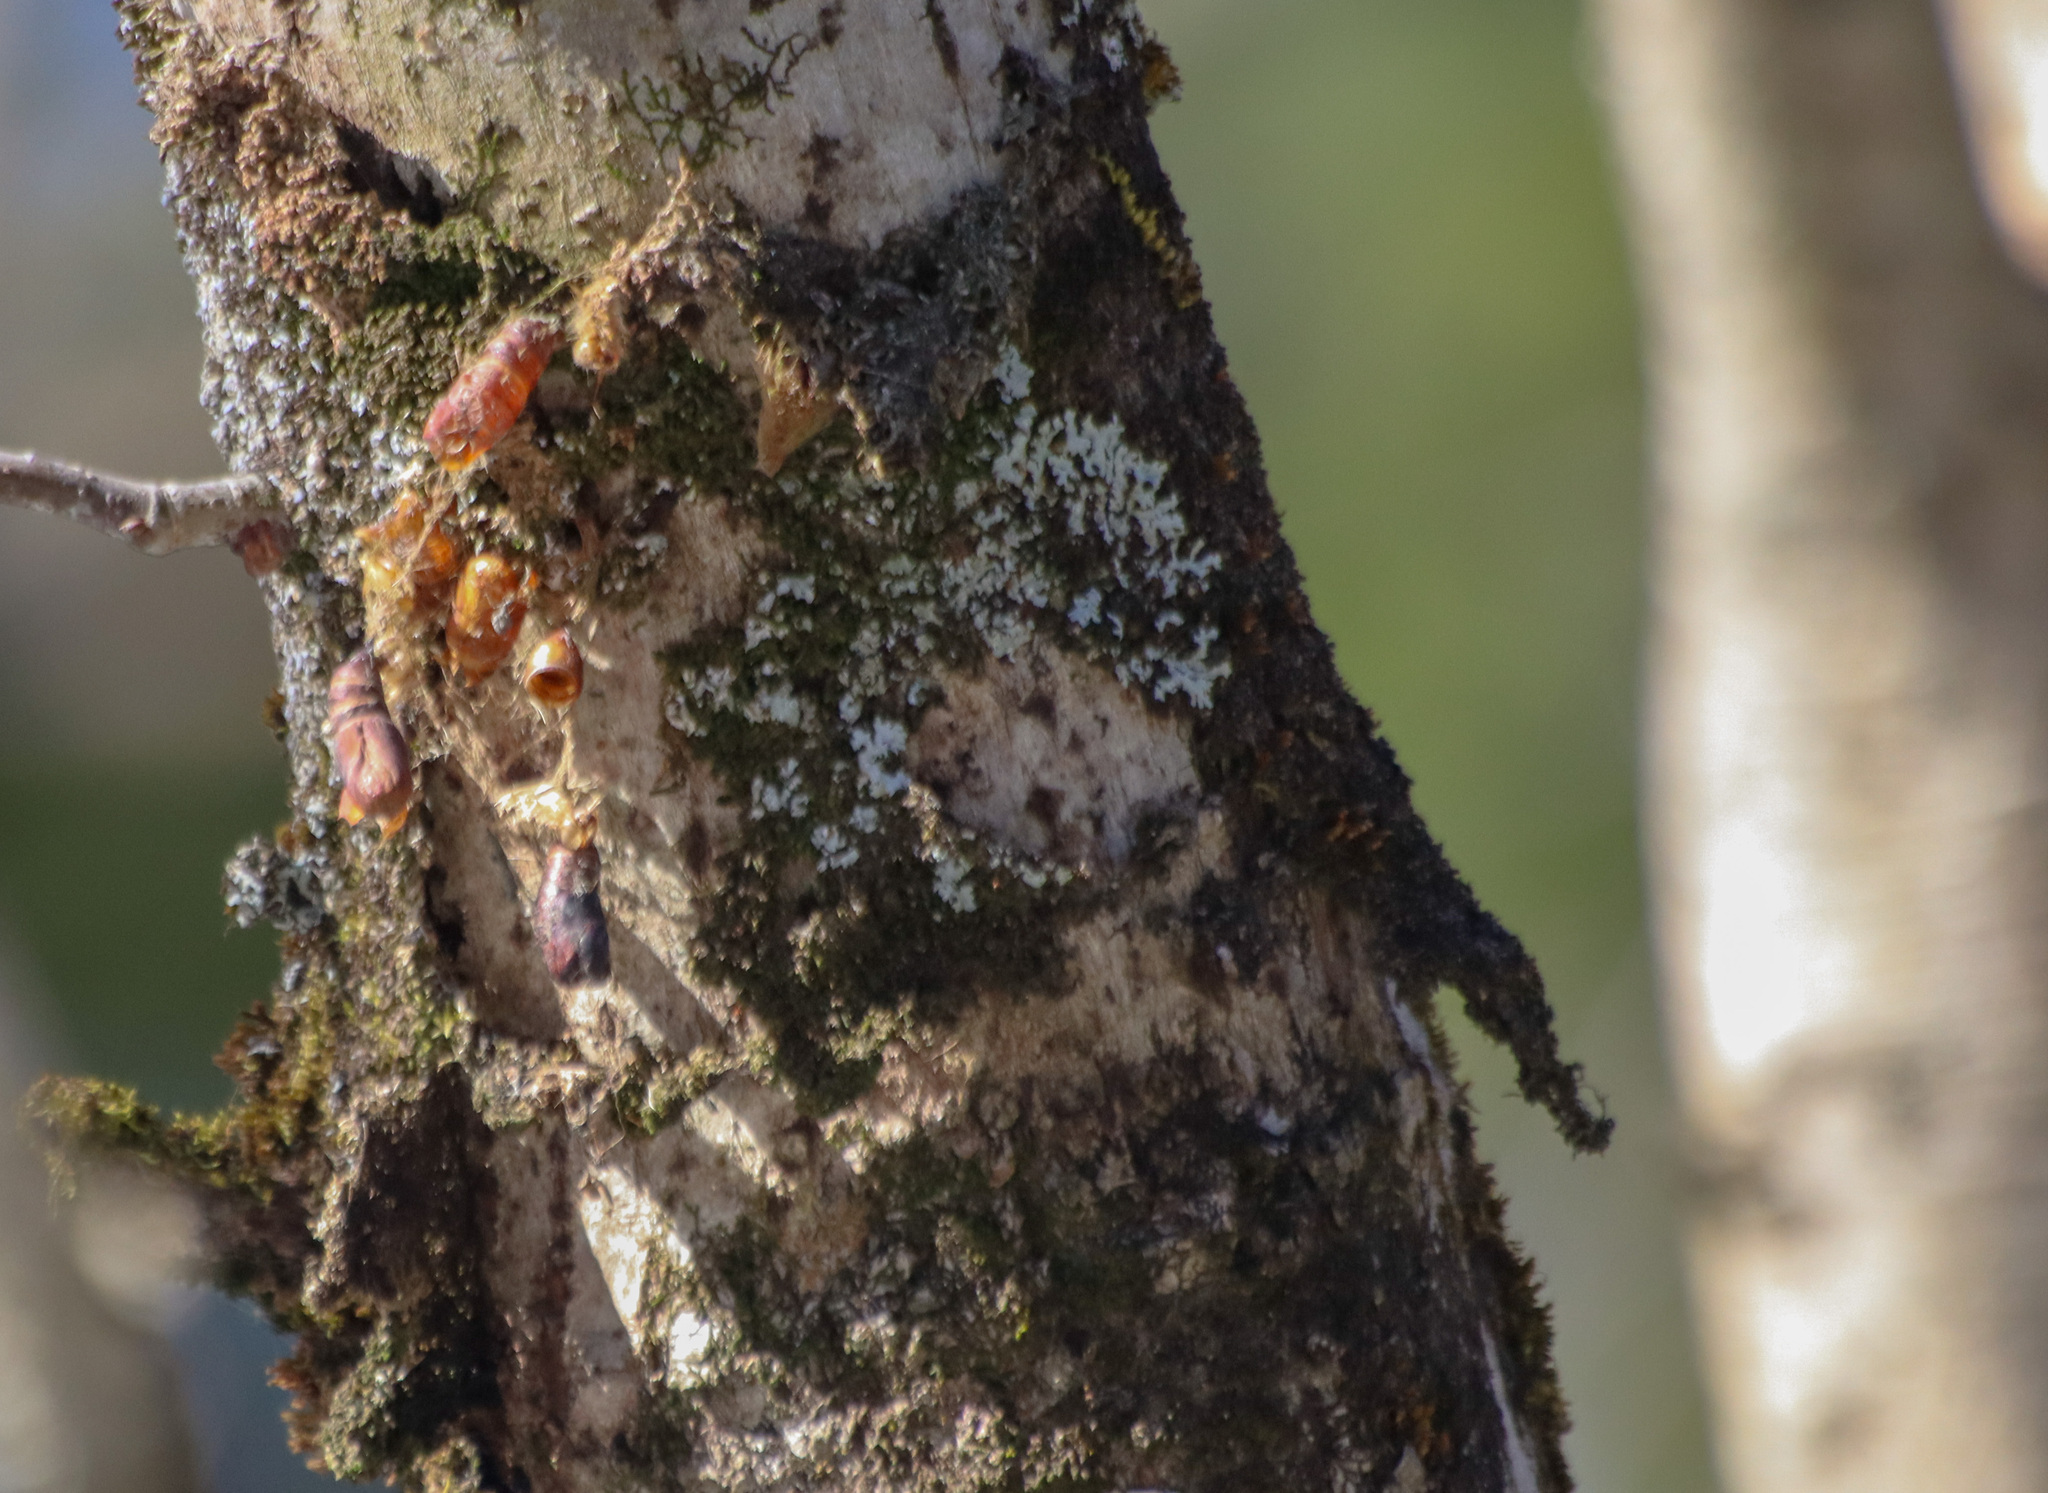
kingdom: Animalia
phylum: Arthropoda
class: Insecta
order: Lepidoptera
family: Erebidae
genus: Lymantria
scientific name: Lymantria dispar
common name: Gypsy moth
